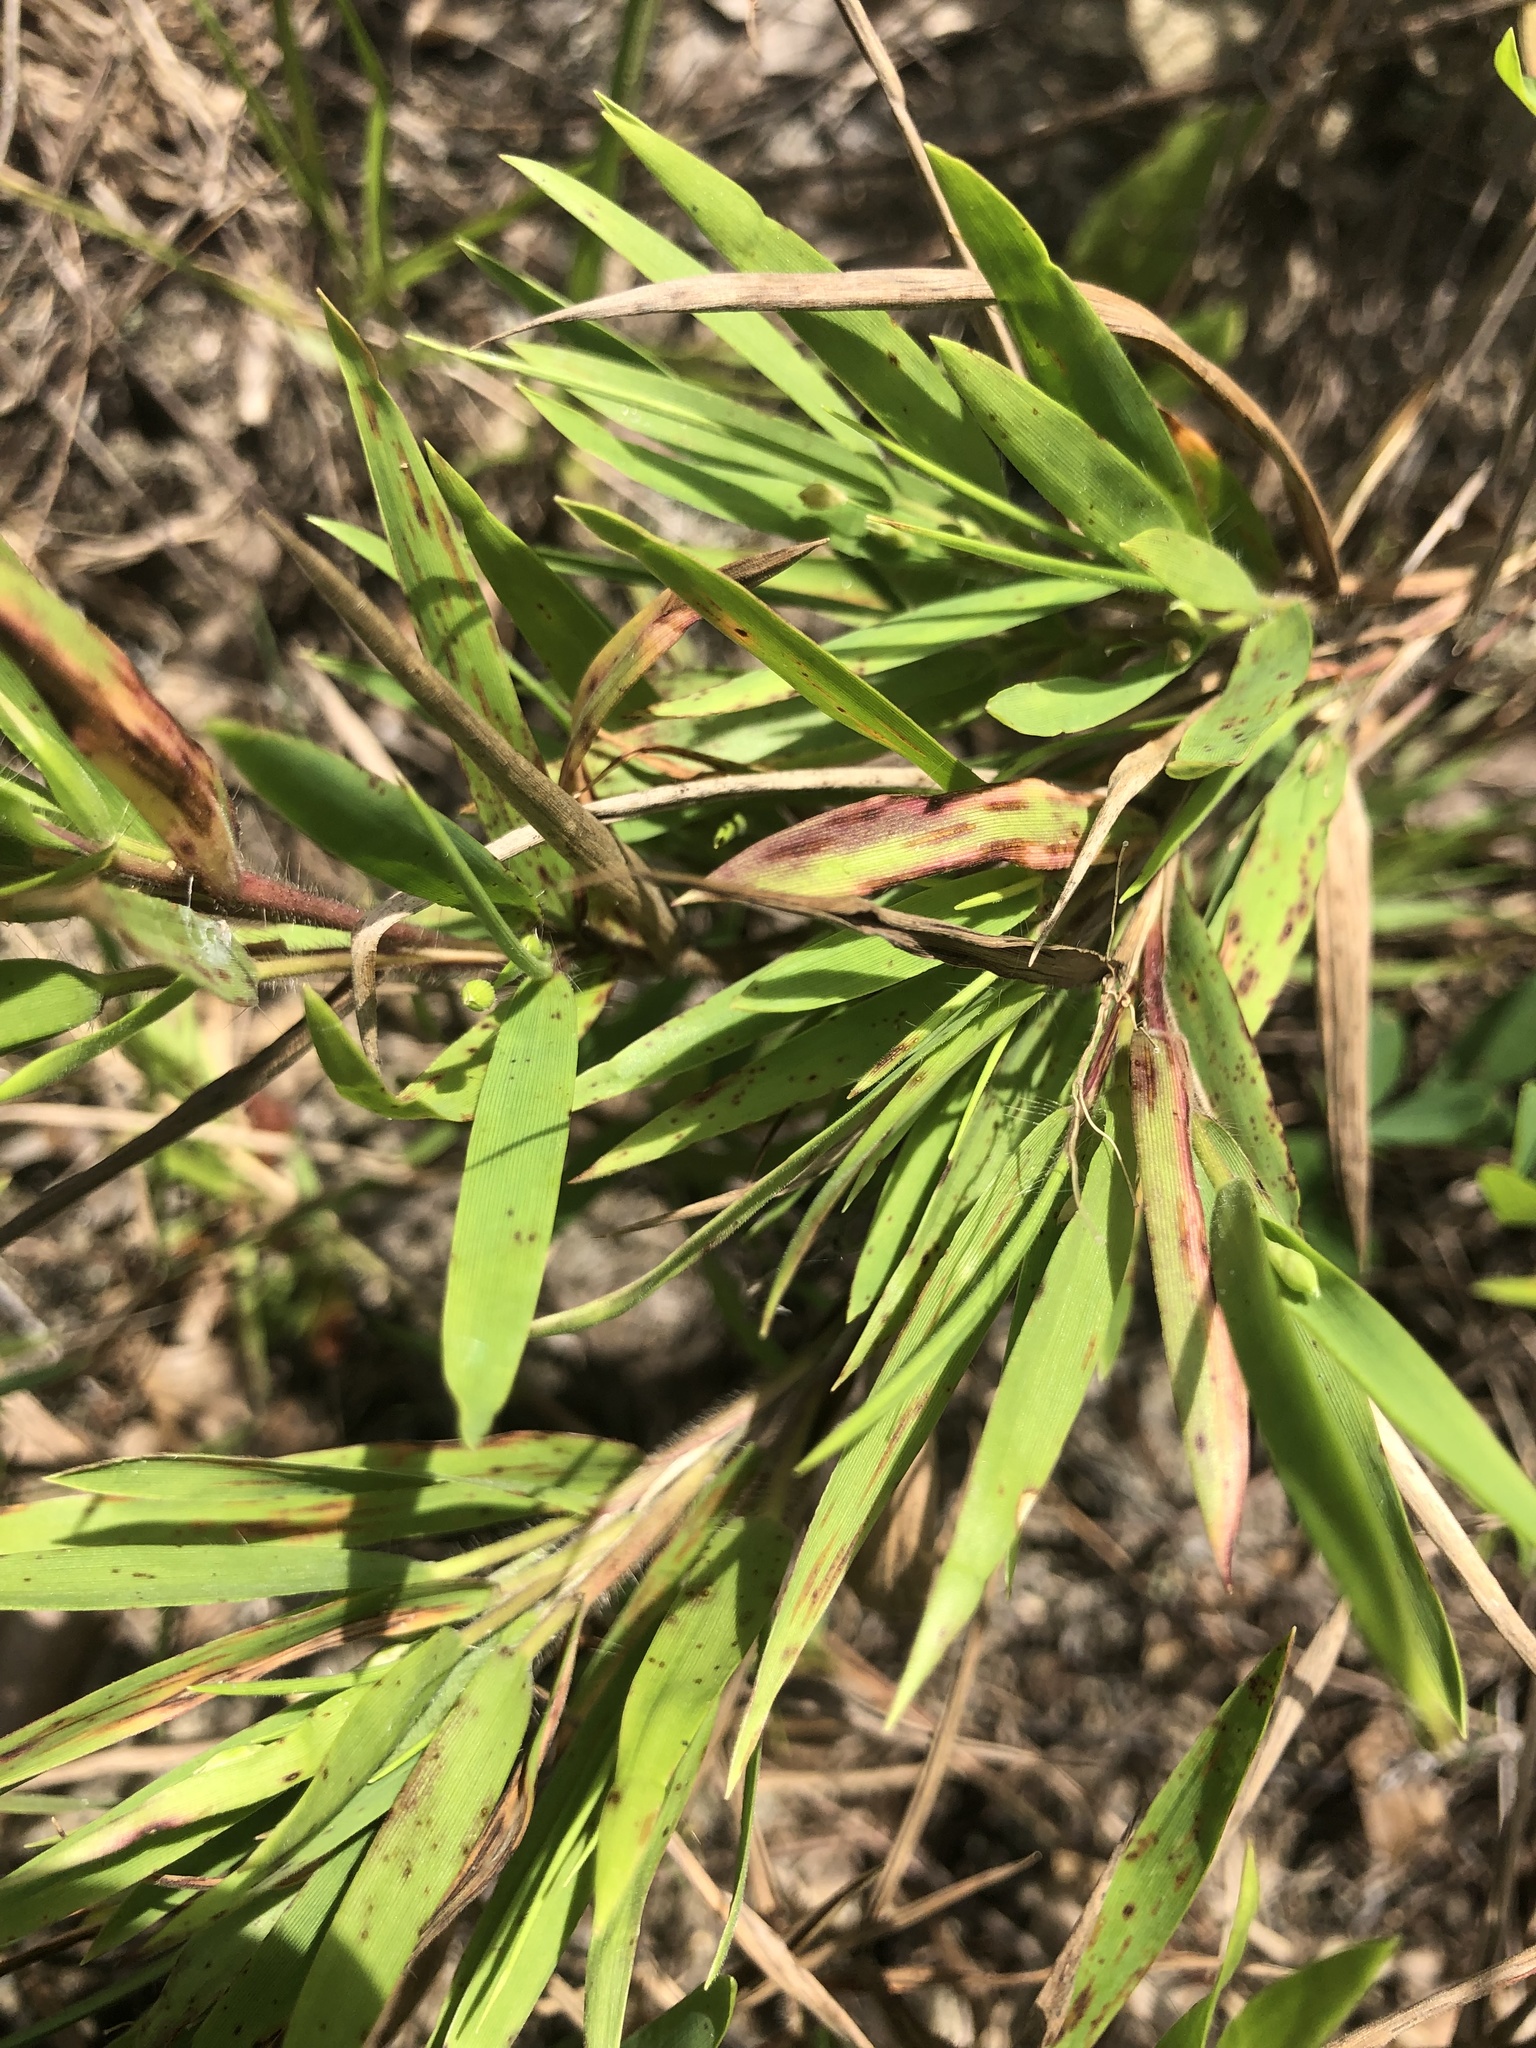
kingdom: Plantae
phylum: Tracheophyta
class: Liliopsida
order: Poales
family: Poaceae
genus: Dichanthelium
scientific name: Dichanthelium oligosanthes
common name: Few-anther obscuregrass
